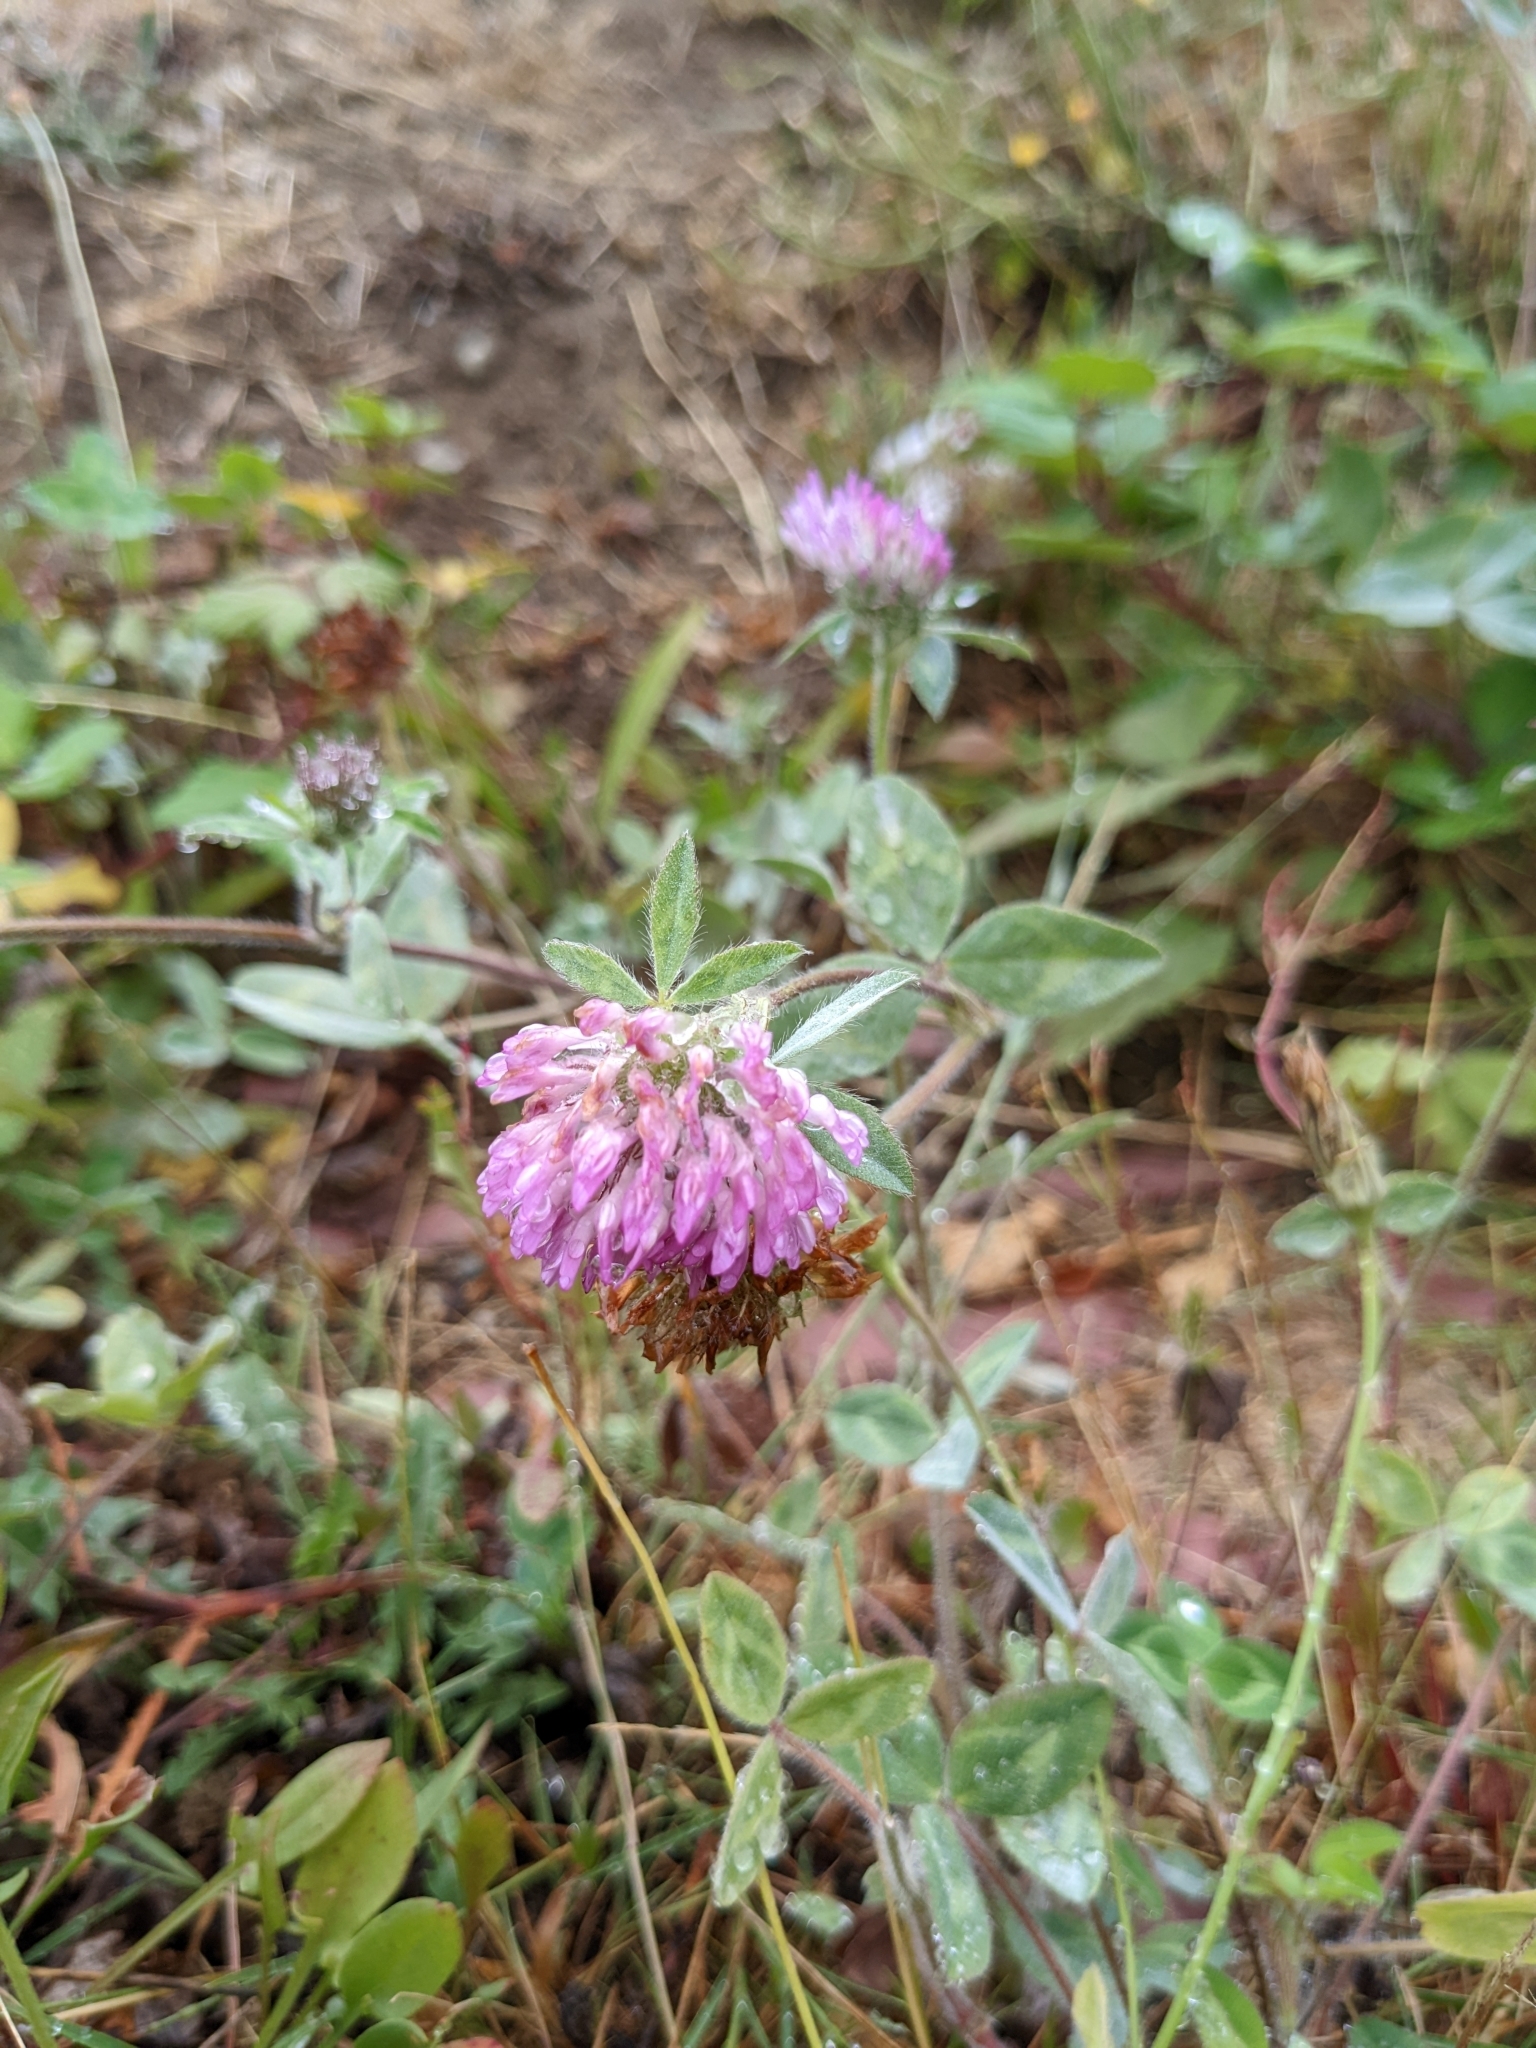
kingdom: Plantae
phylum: Tracheophyta
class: Magnoliopsida
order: Fabales
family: Fabaceae
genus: Trifolium
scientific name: Trifolium pratense
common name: Red clover
